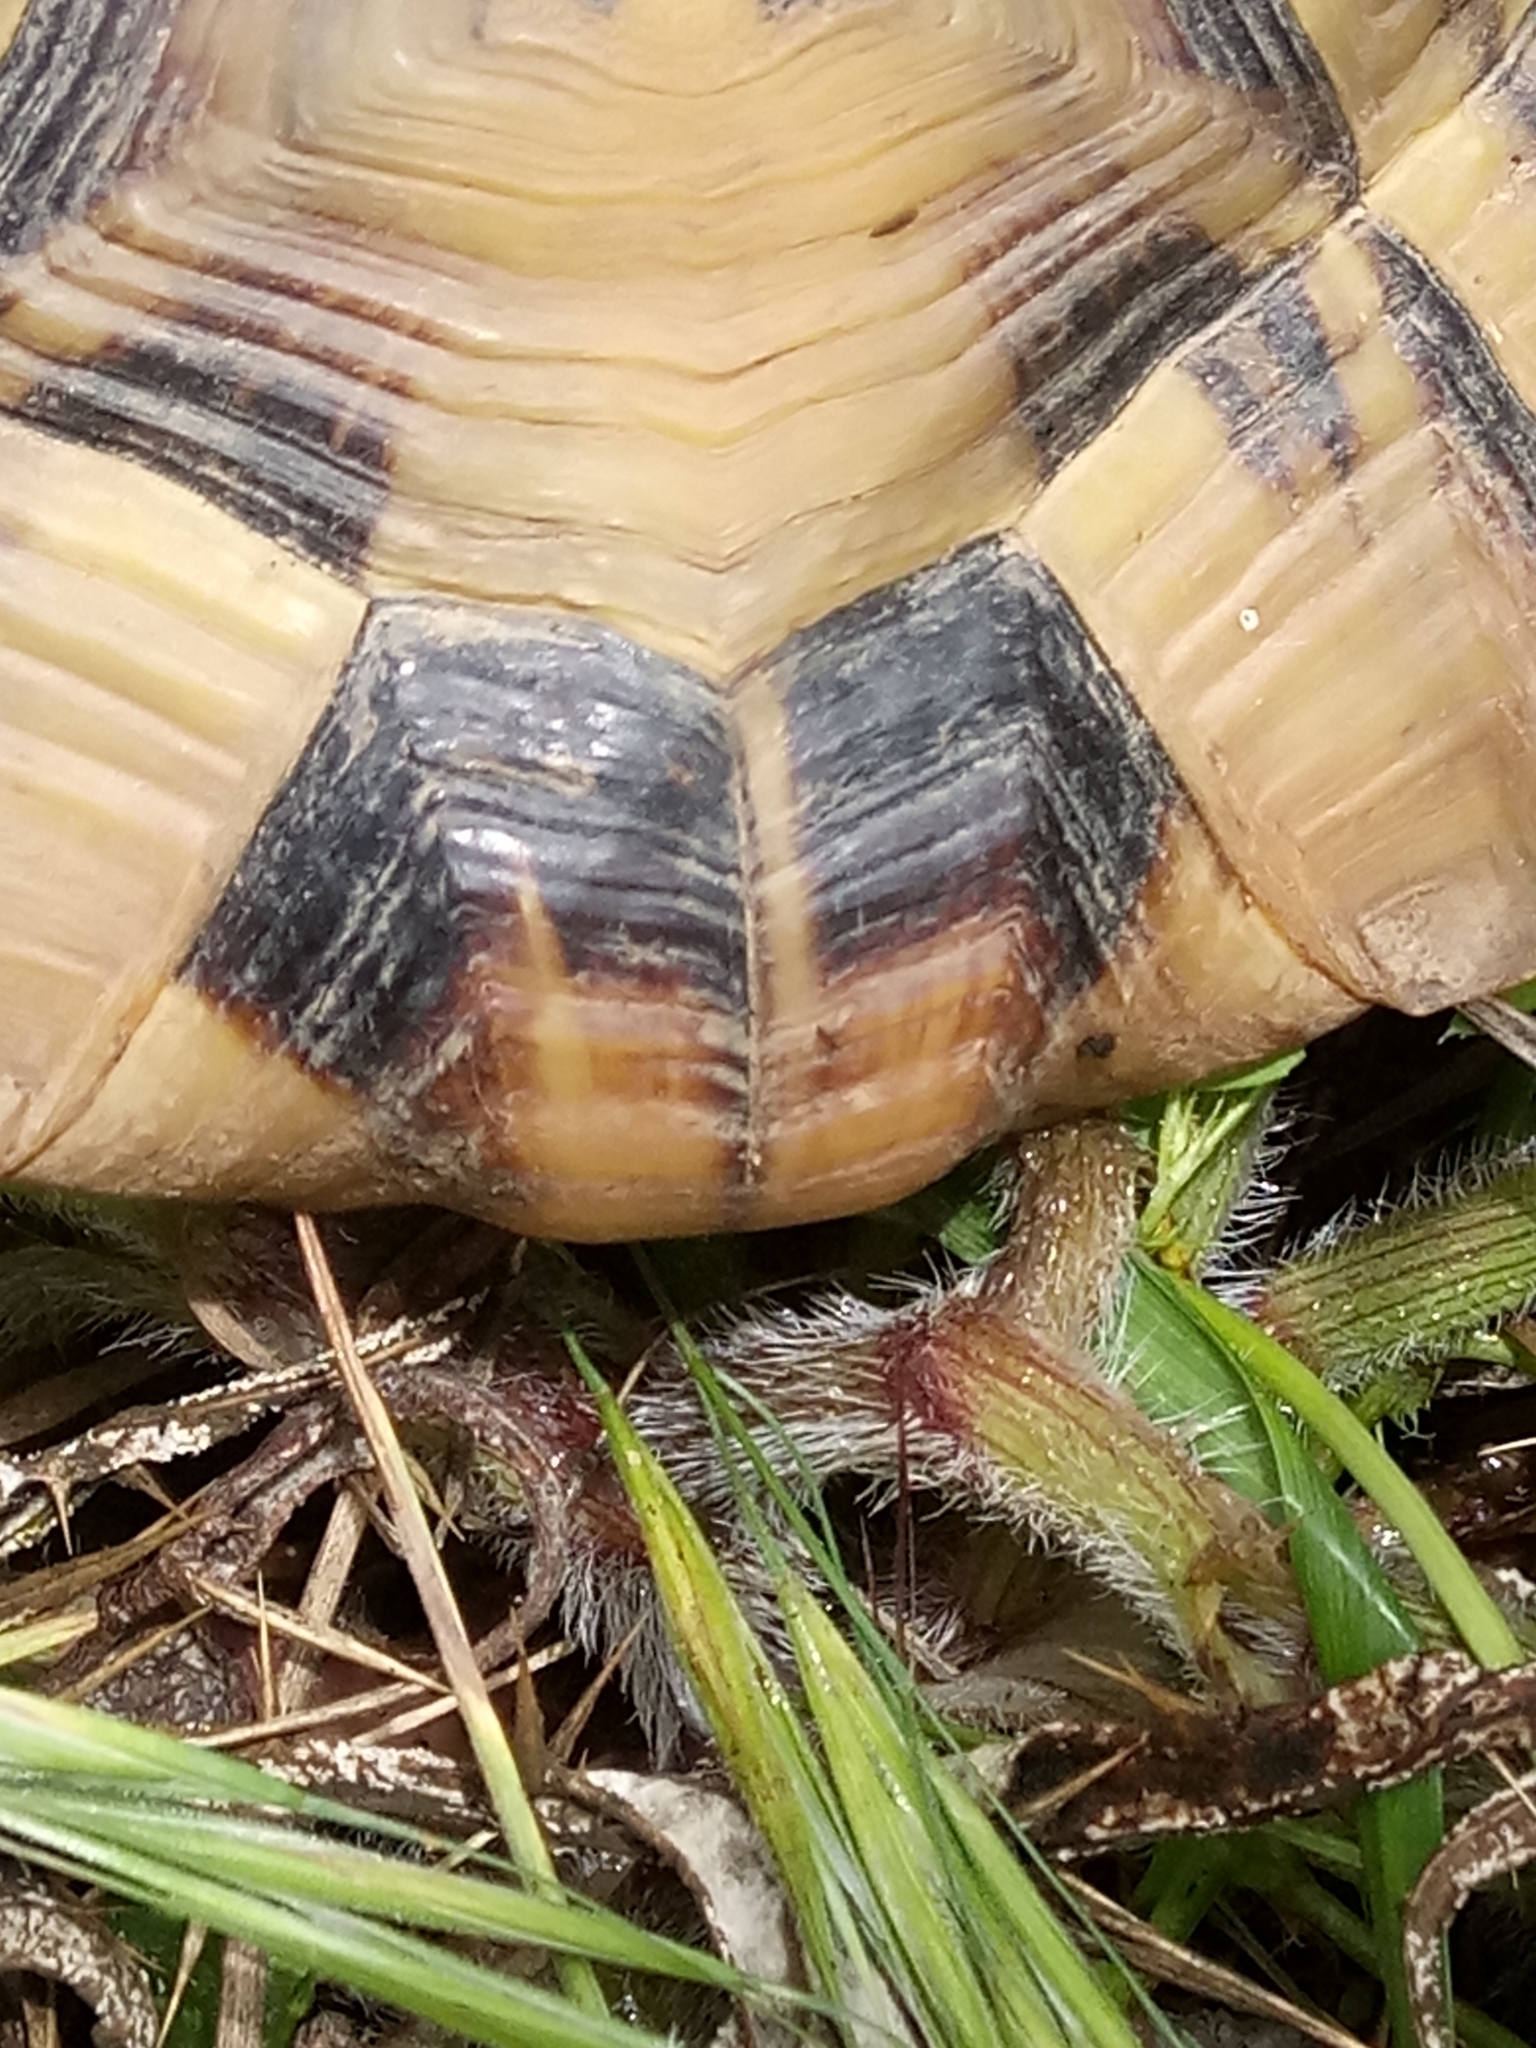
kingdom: Animalia
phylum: Chordata
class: Testudines
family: Testudinidae
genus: Testudo
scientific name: Testudo graeca
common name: Common tortoise
